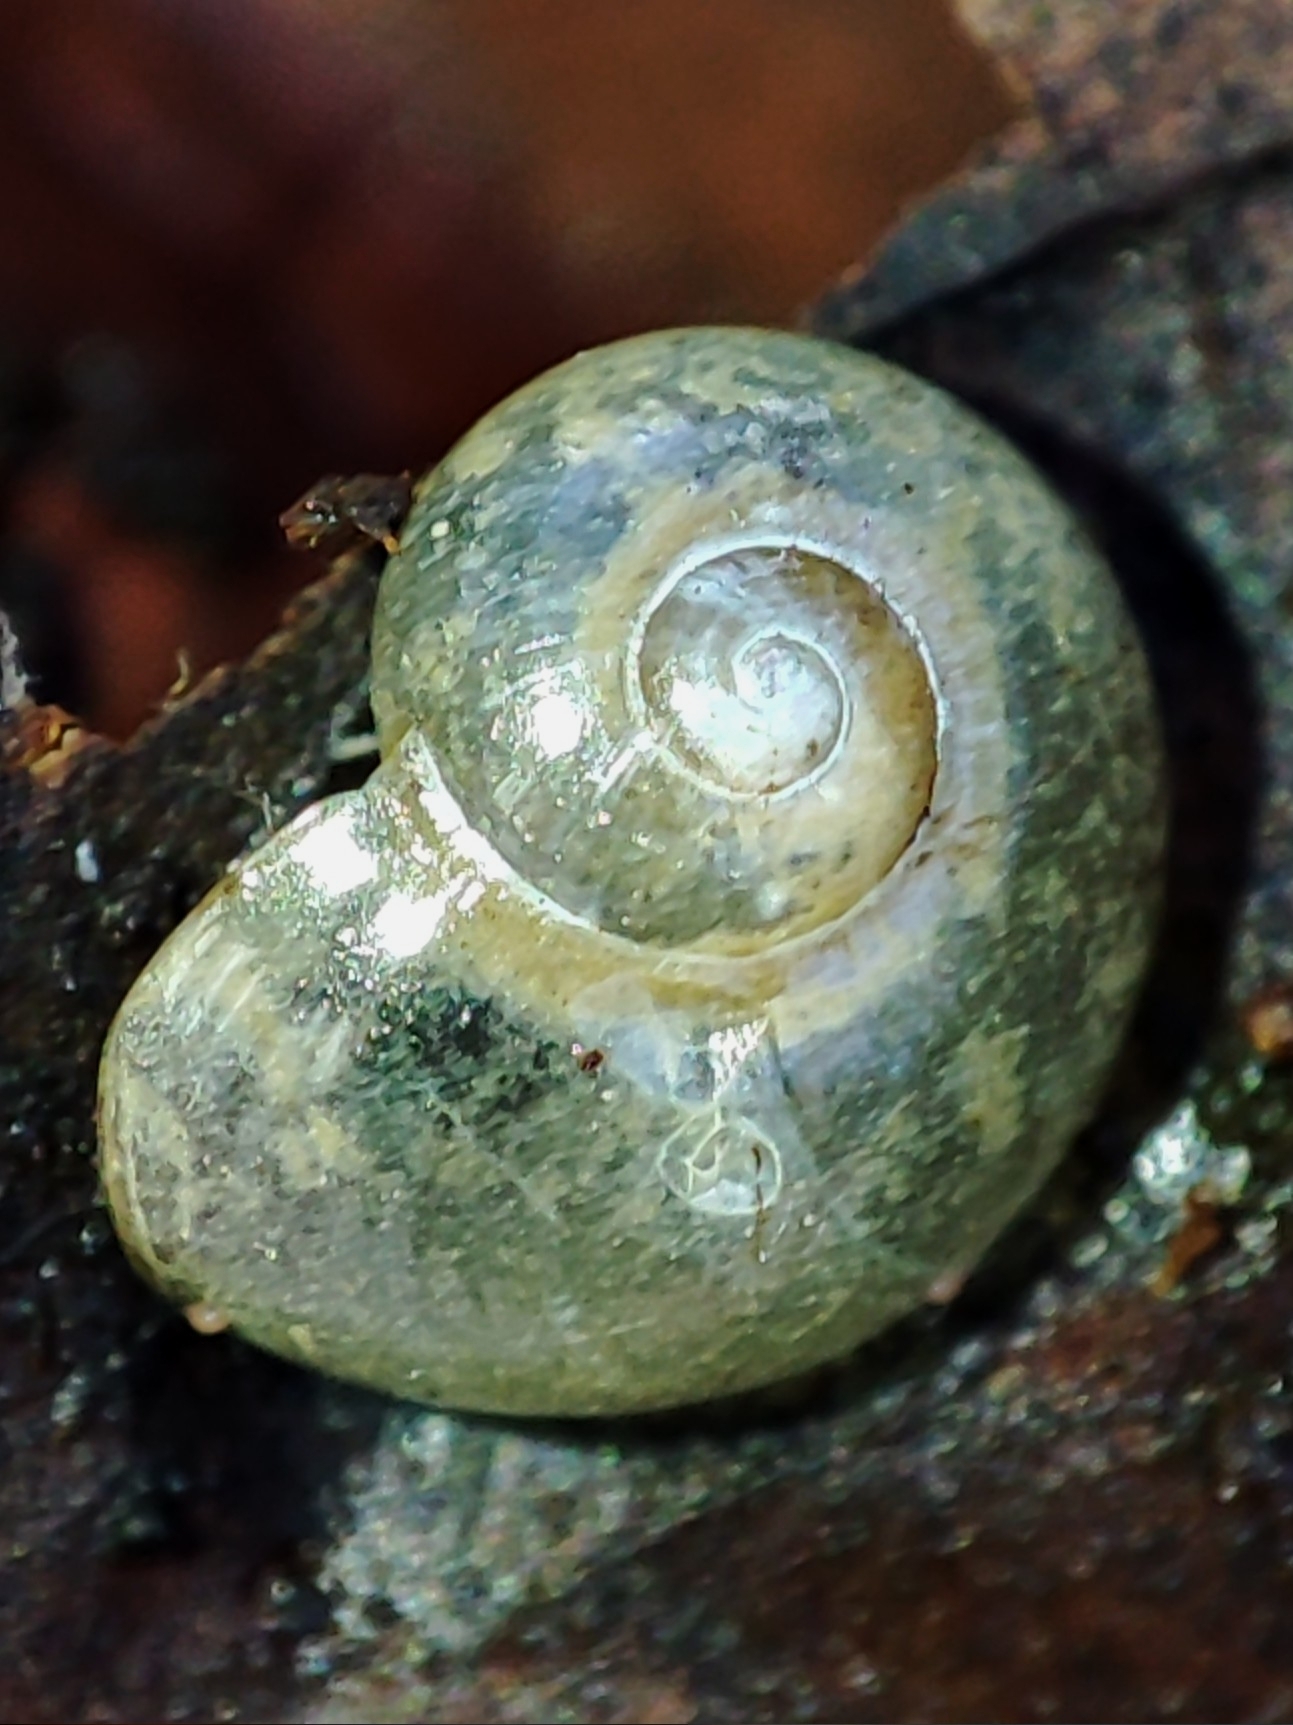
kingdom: Animalia
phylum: Mollusca
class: Gastropoda
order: Stylommatophora
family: Vitrinidae
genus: Vitrina
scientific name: Vitrina pellucida
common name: Pellucid glass snail
